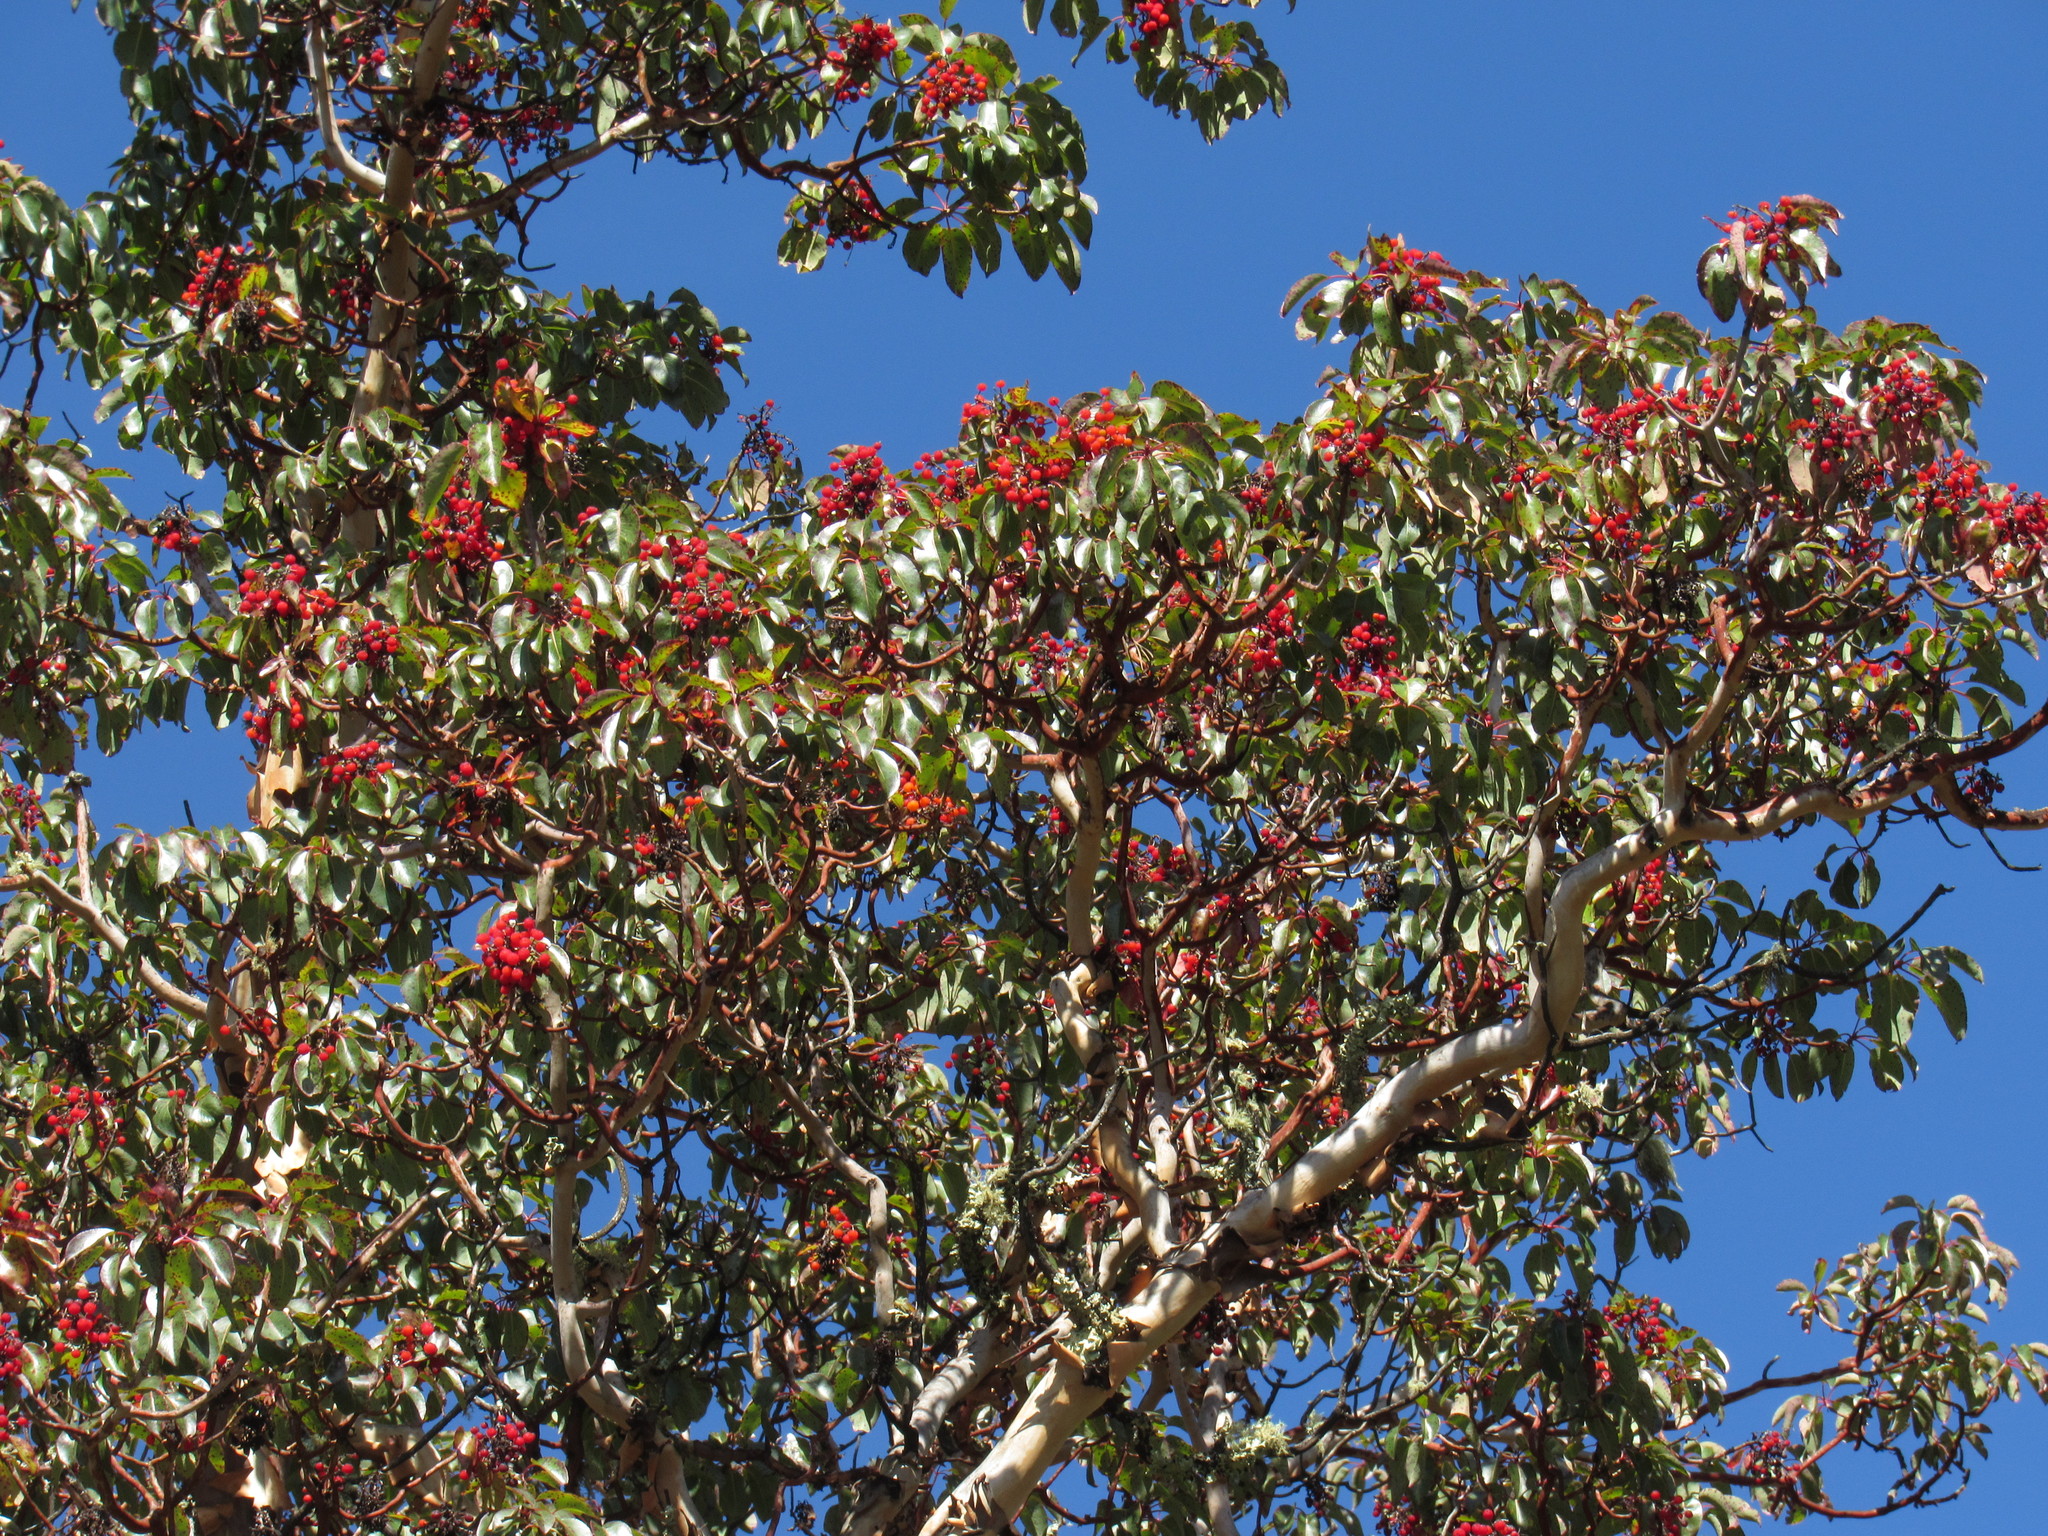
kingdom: Plantae
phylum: Tracheophyta
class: Magnoliopsida
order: Ericales
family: Ericaceae
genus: Arbutus
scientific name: Arbutus xalapensis
